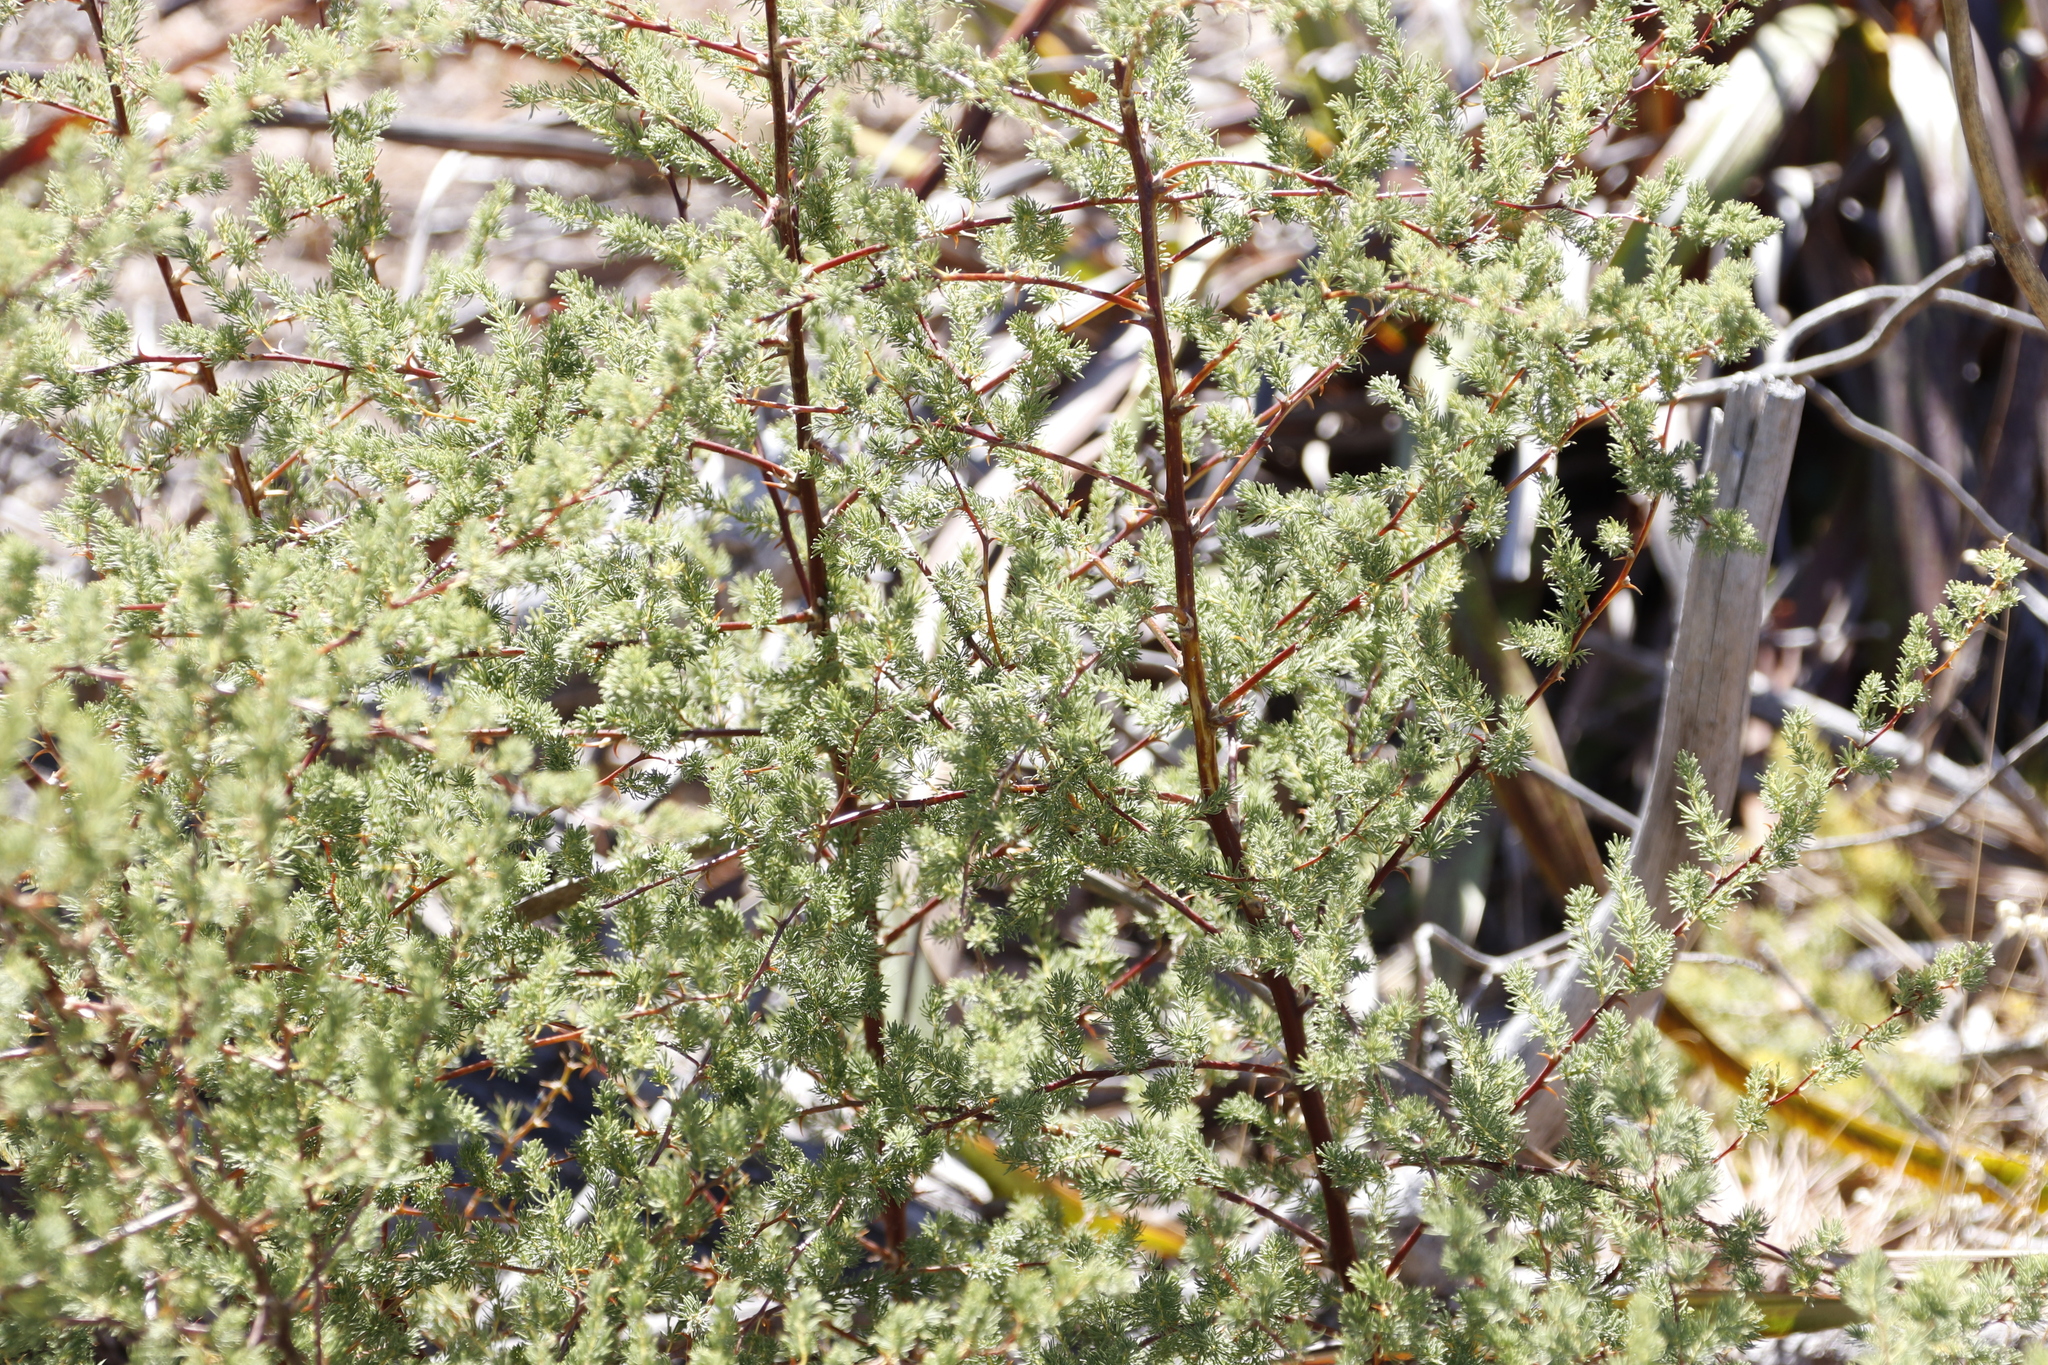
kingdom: Plantae
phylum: Tracheophyta
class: Liliopsida
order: Asparagales
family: Asparagaceae
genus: Asparagus
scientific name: Asparagus rubicundus
